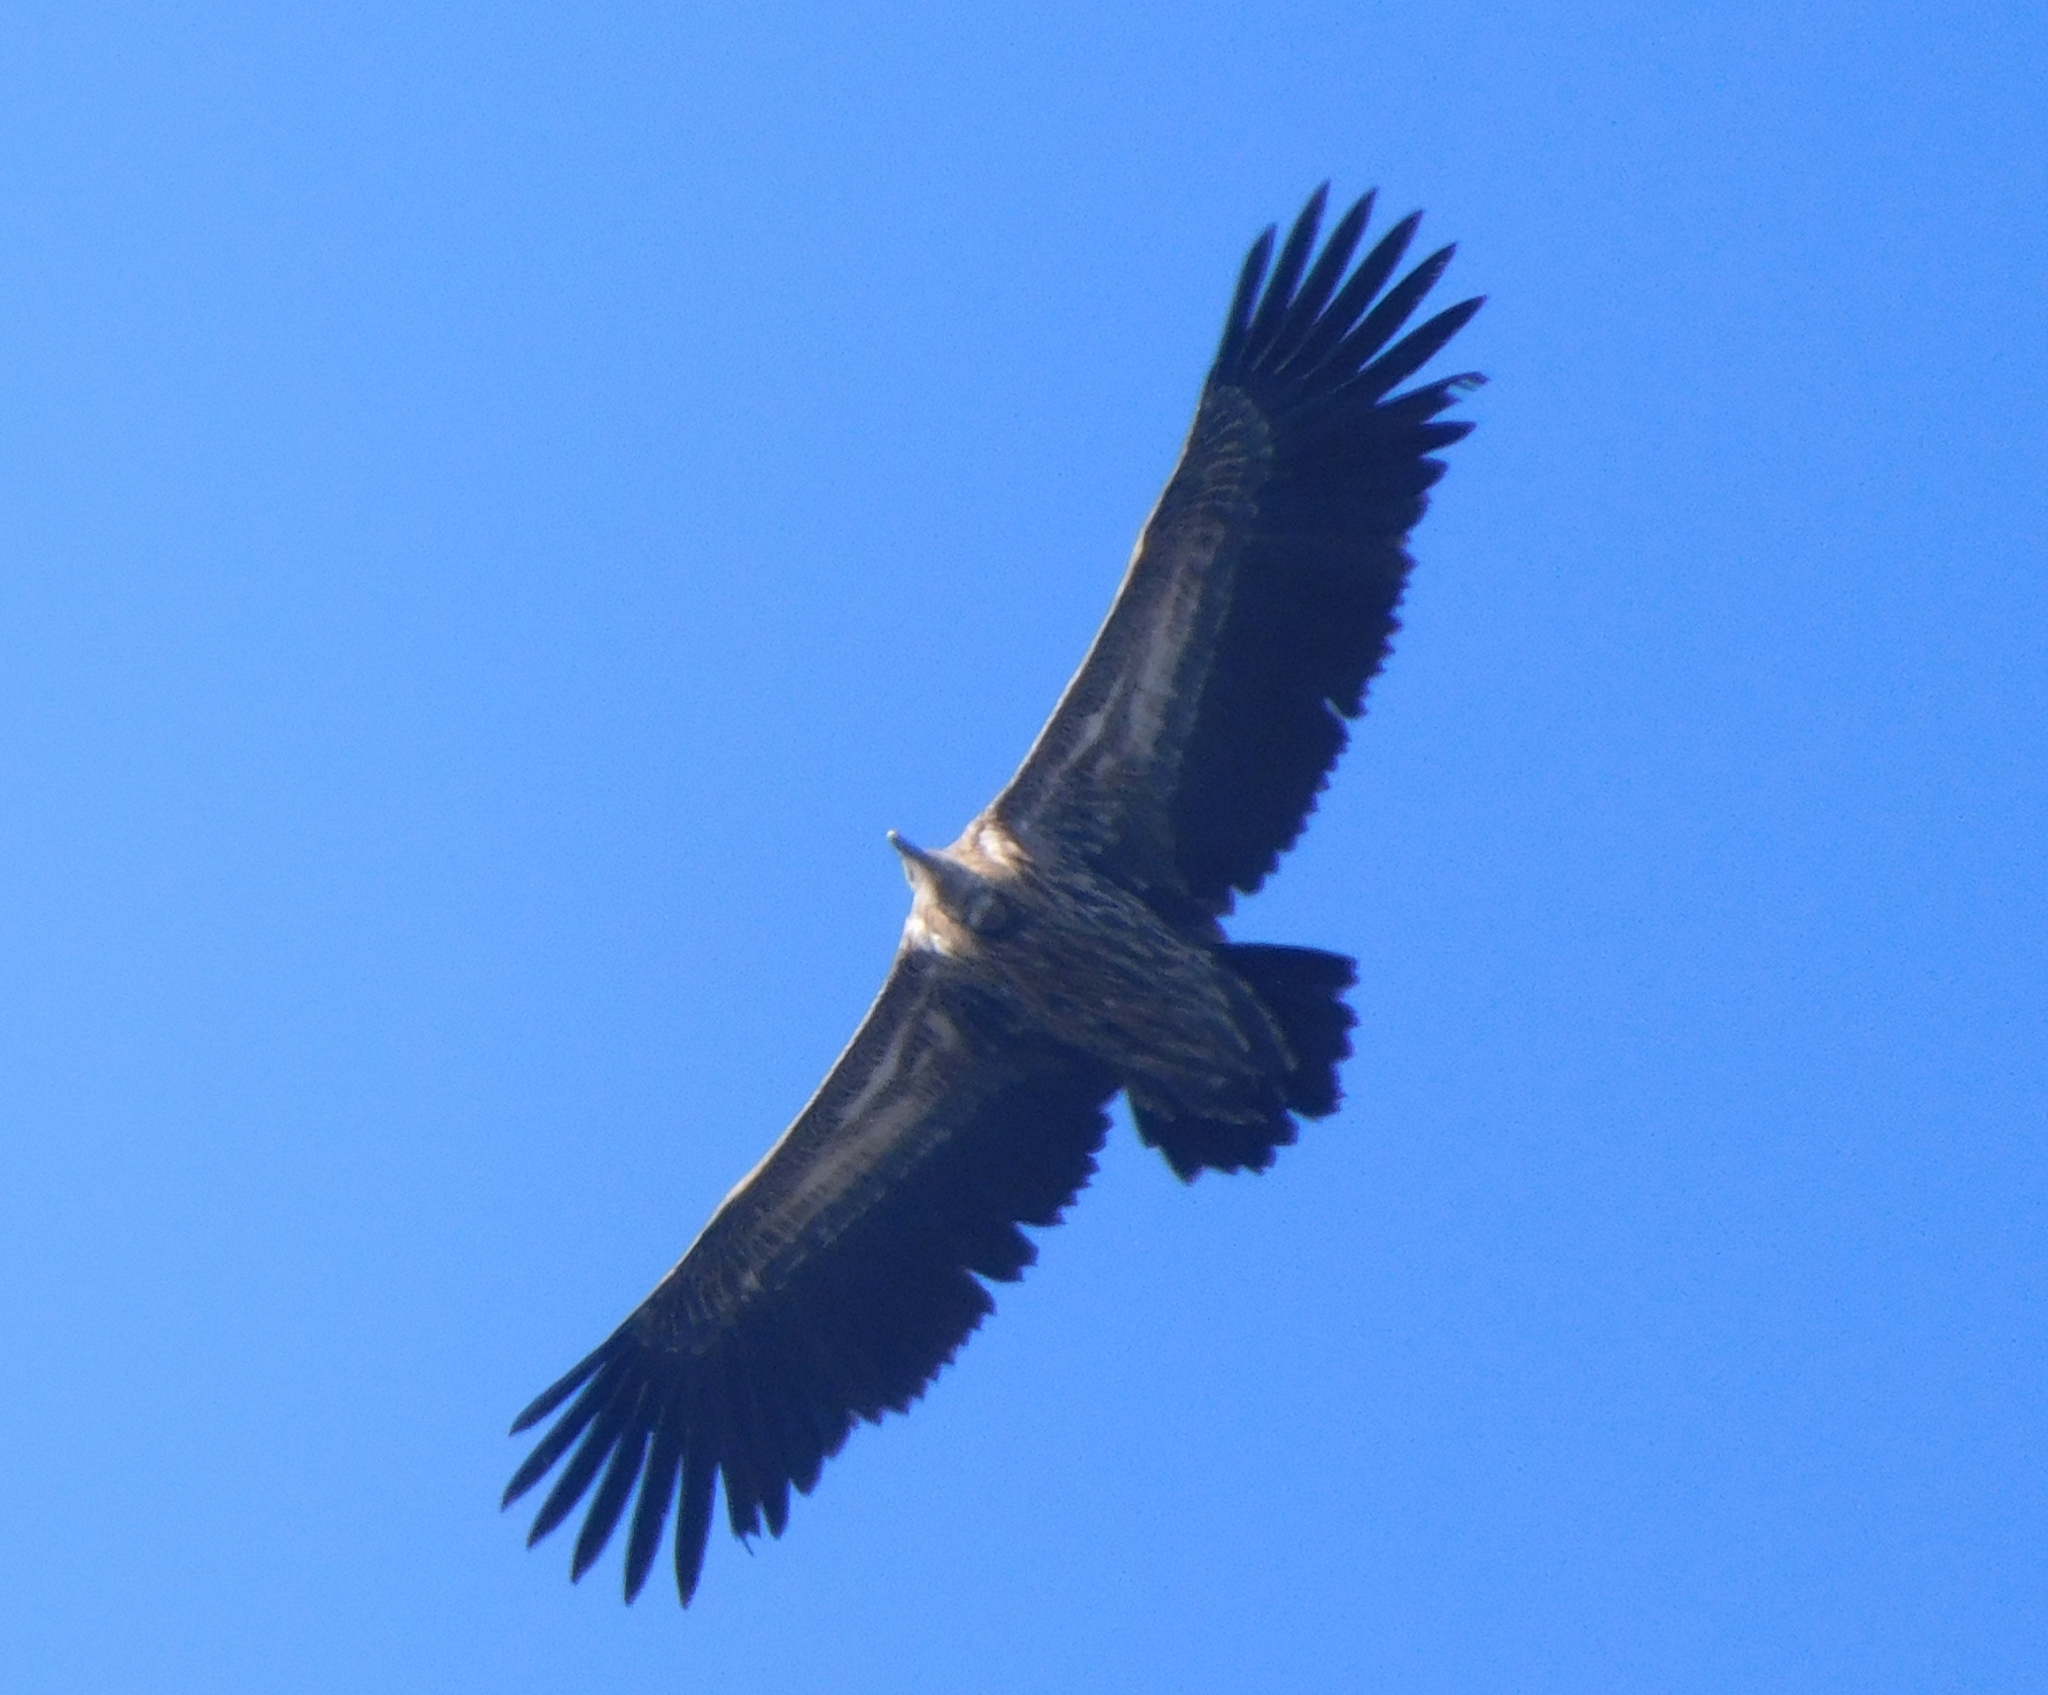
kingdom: Animalia
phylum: Chordata
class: Aves
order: Accipitriformes
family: Accipitridae
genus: Gyps
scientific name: Gyps himalayensis
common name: Himalayan griffon
